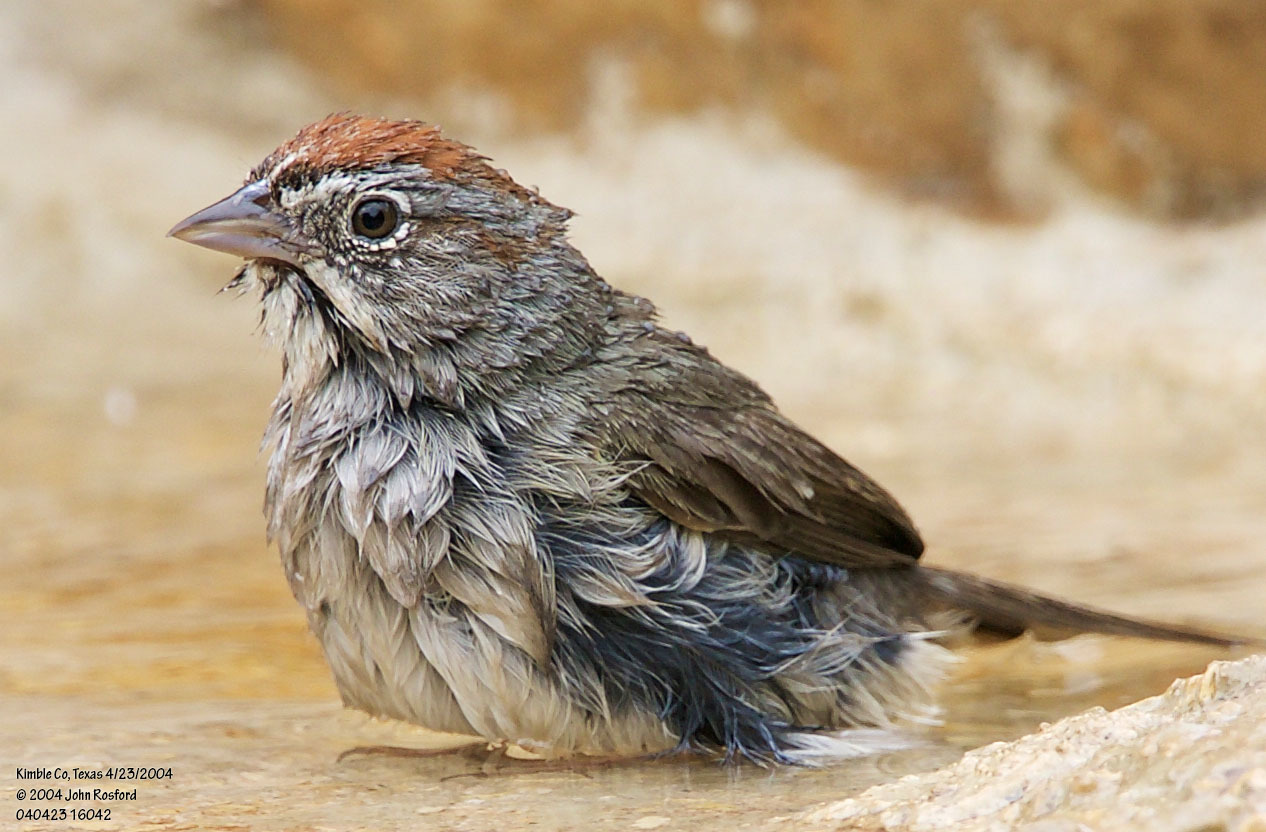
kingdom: Animalia
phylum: Chordata
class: Aves
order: Passeriformes
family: Passerellidae
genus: Aimophila
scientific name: Aimophila ruficeps
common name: Rufous-crowned sparrow
